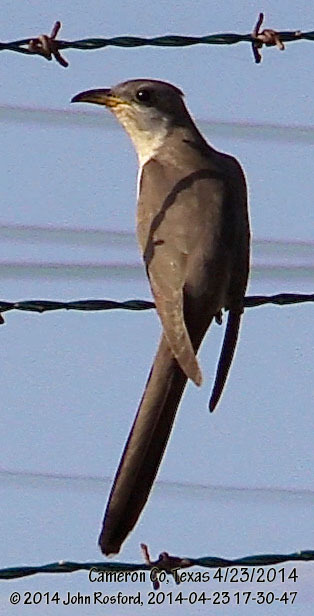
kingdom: Animalia
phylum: Chordata
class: Aves
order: Cuculiformes
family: Cuculidae
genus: Coccyzus
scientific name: Coccyzus americanus
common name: Yellow-billed cuckoo
